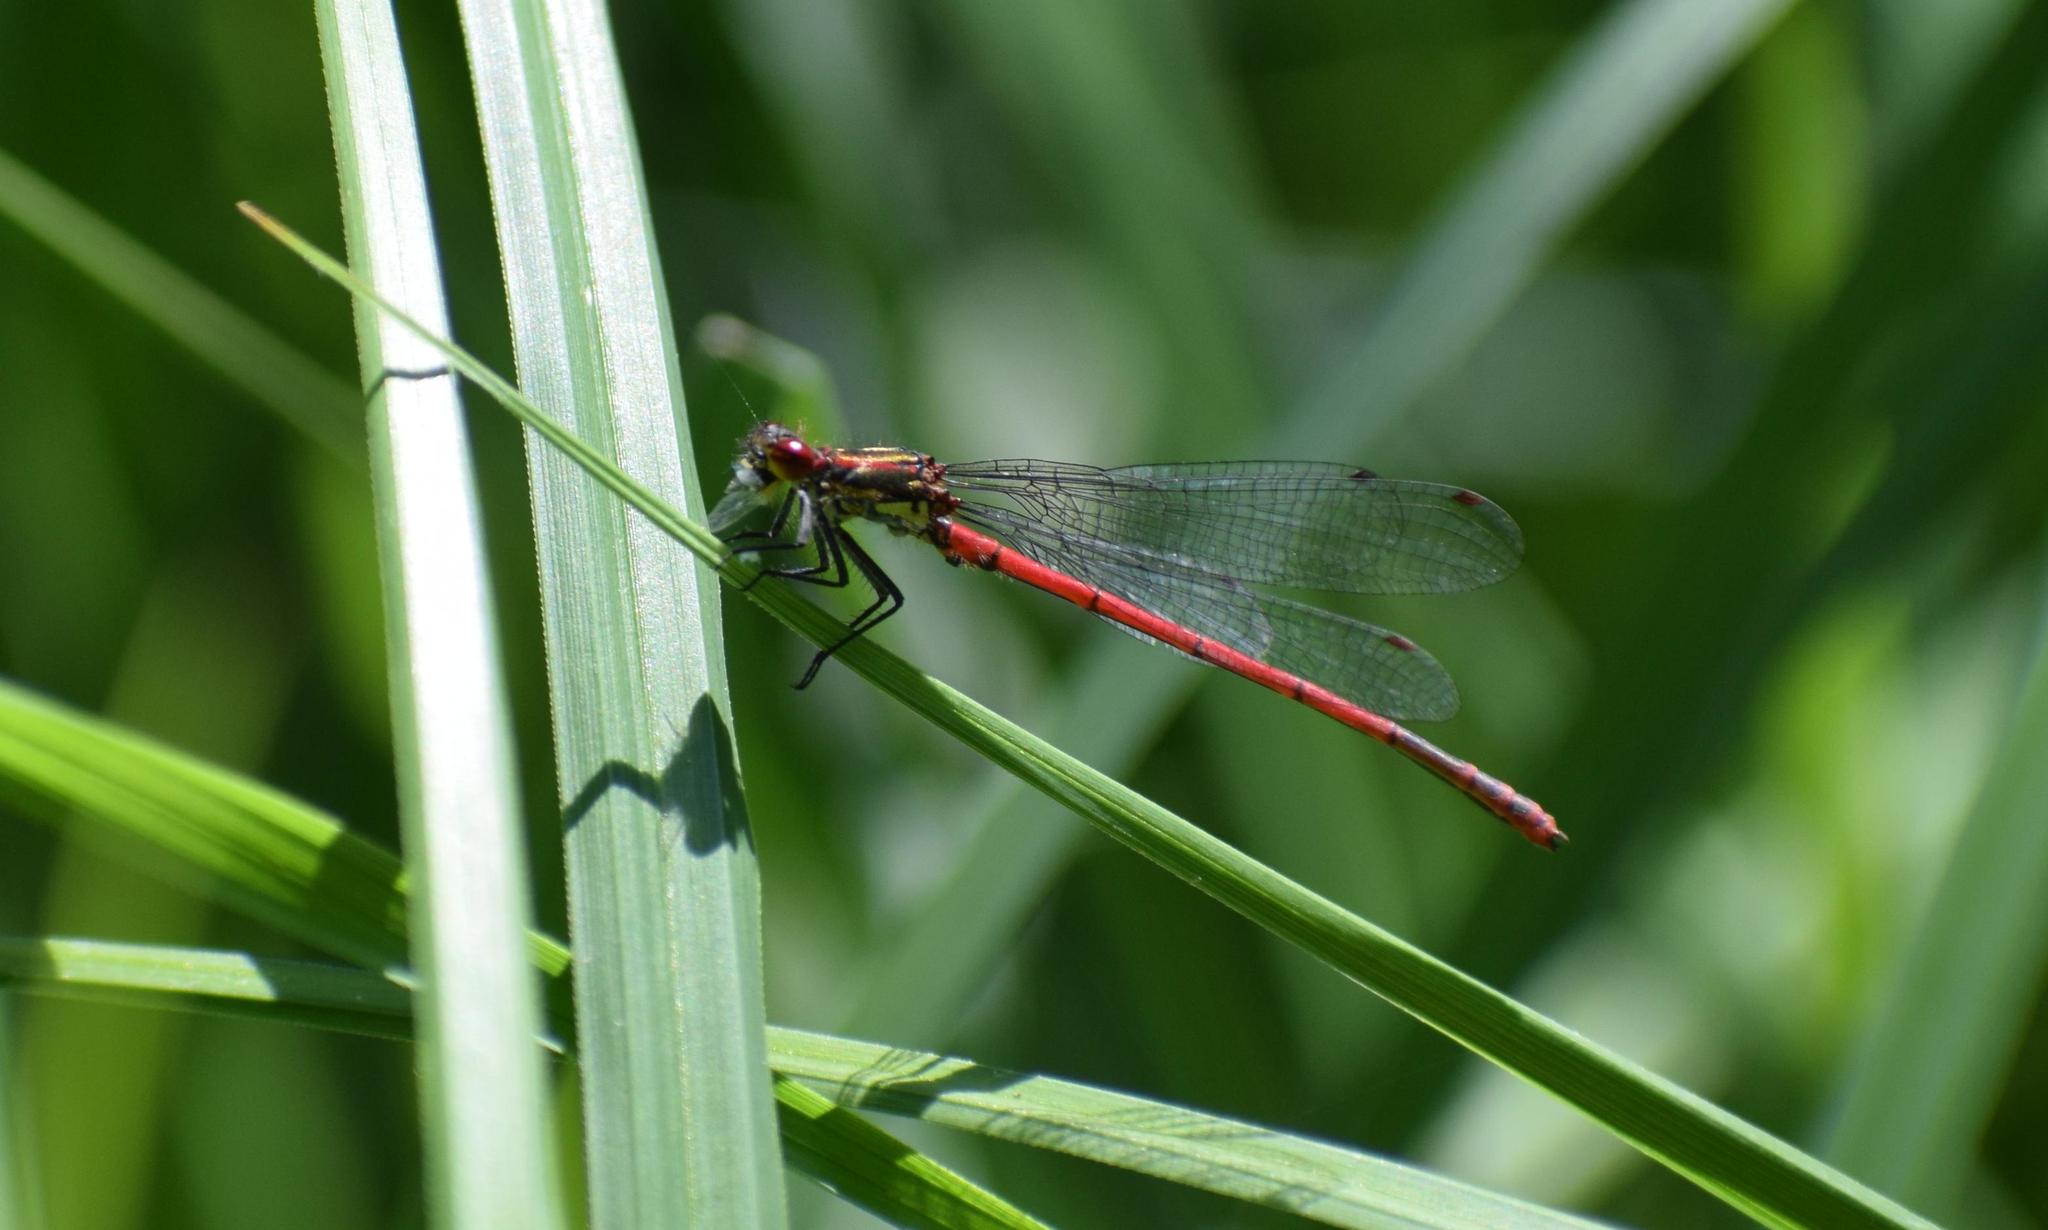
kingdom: Animalia
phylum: Arthropoda
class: Insecta
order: Odonata
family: Coenagrionidae
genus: Pyrrhosoma
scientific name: Pyrrhosoma nymphula
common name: Large red damsel
